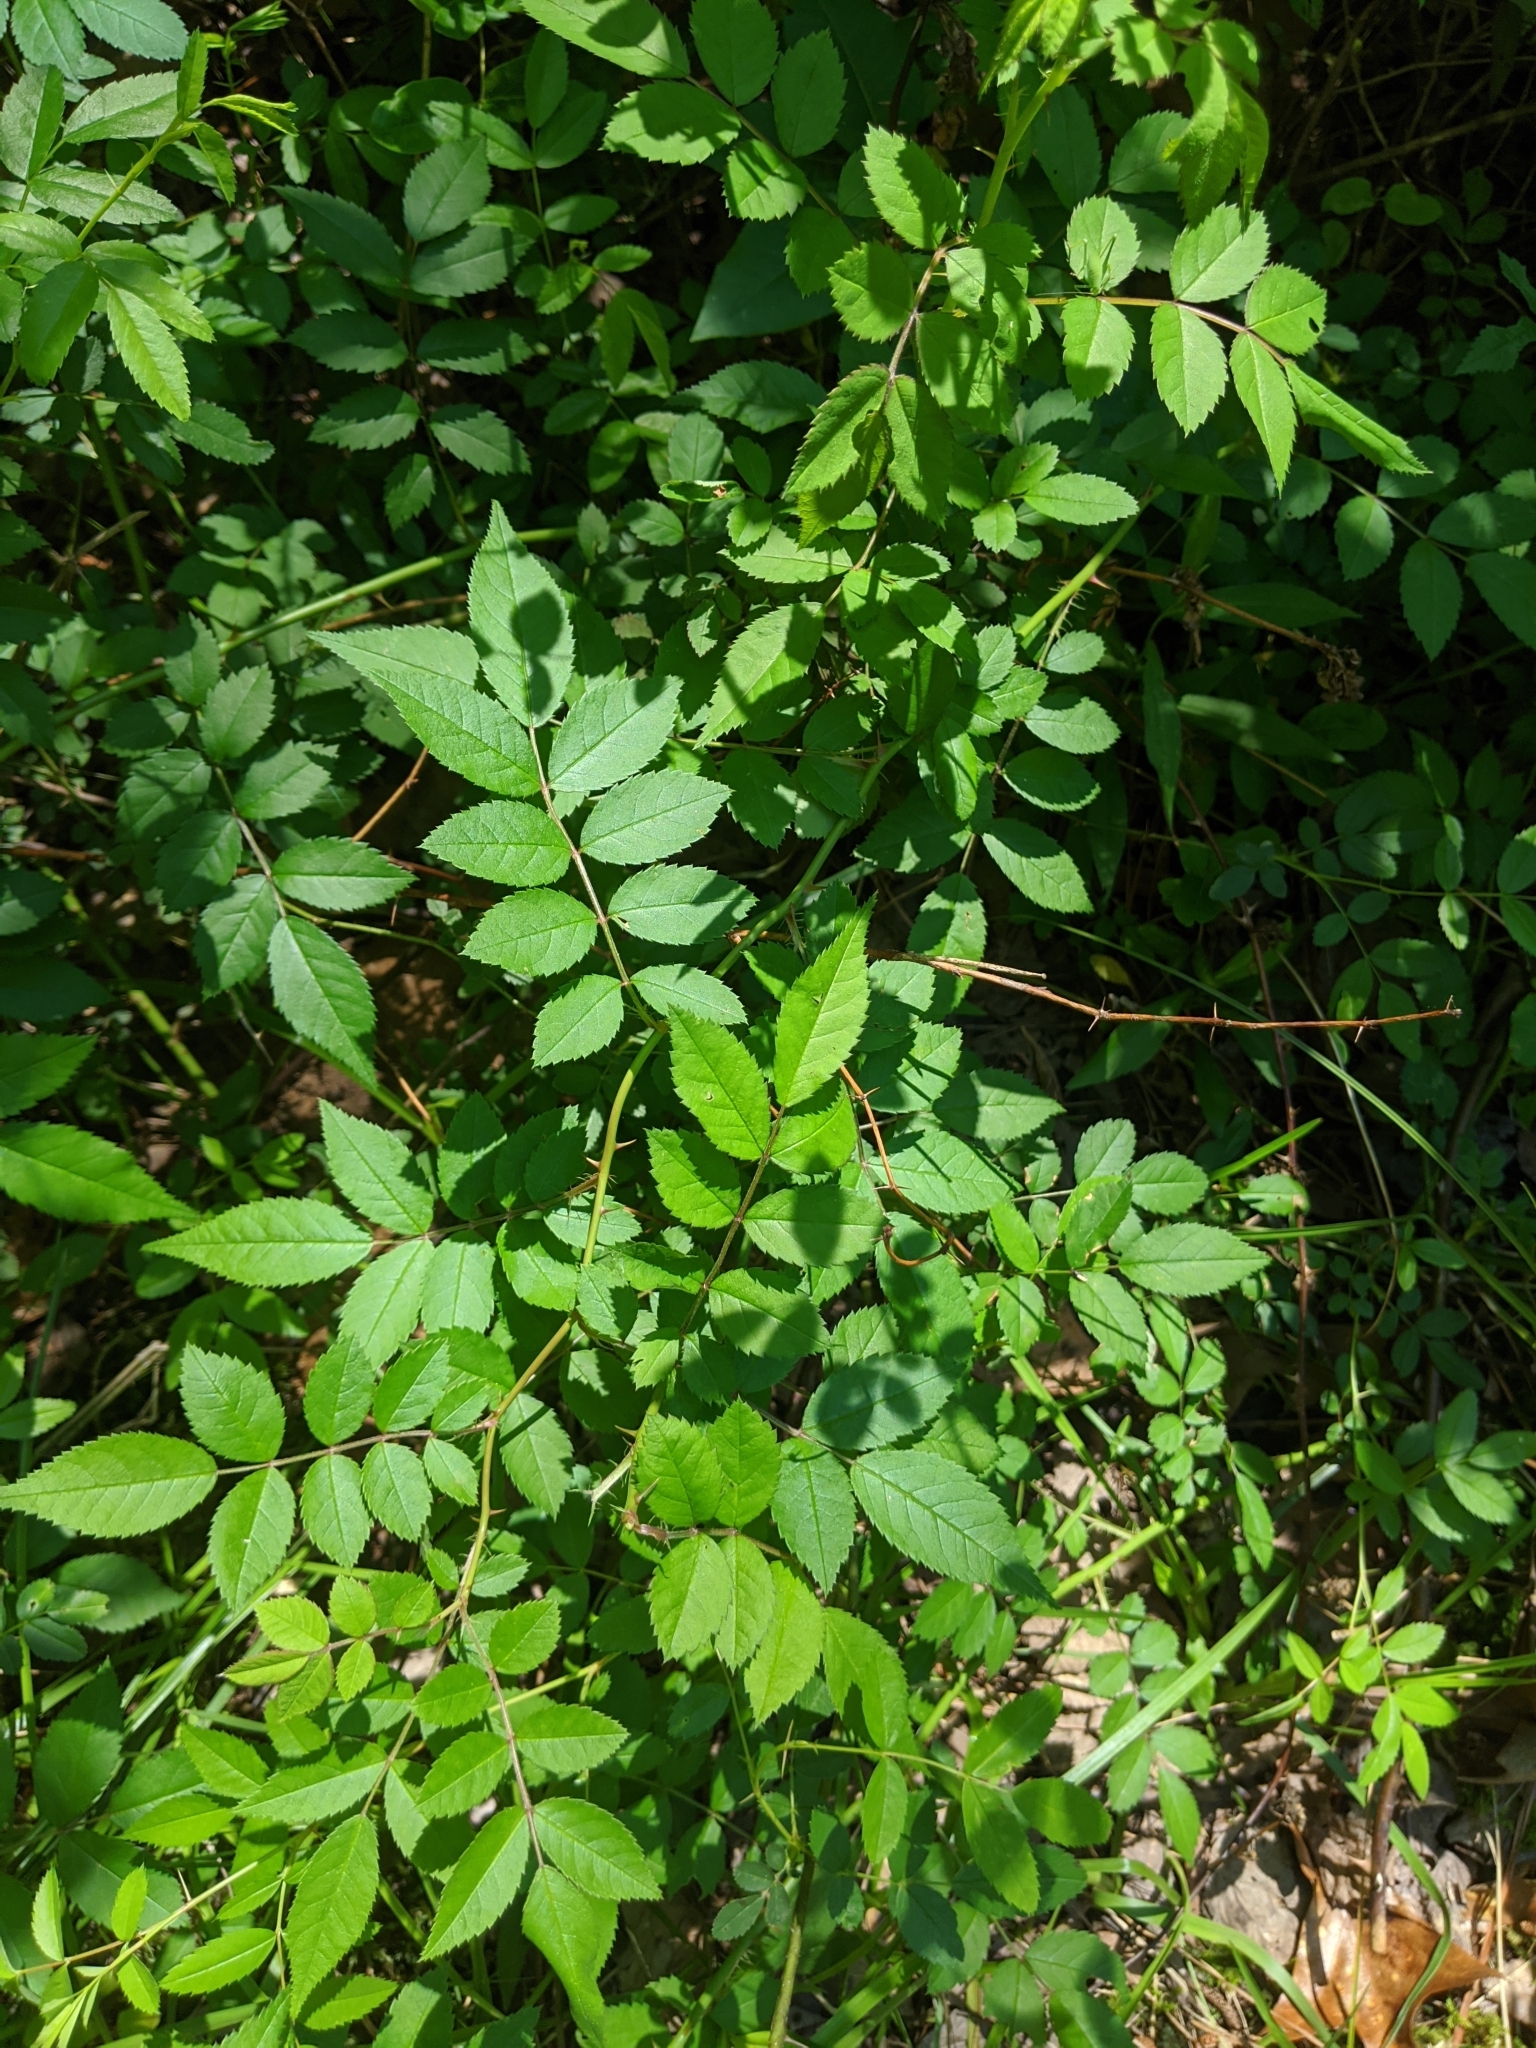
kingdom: Plantae
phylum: Tracheophyta
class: Magnoliopsida
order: Rosales
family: Rosaceae
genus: Rosa
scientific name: Rosa multiflora
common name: Multiflora rose
